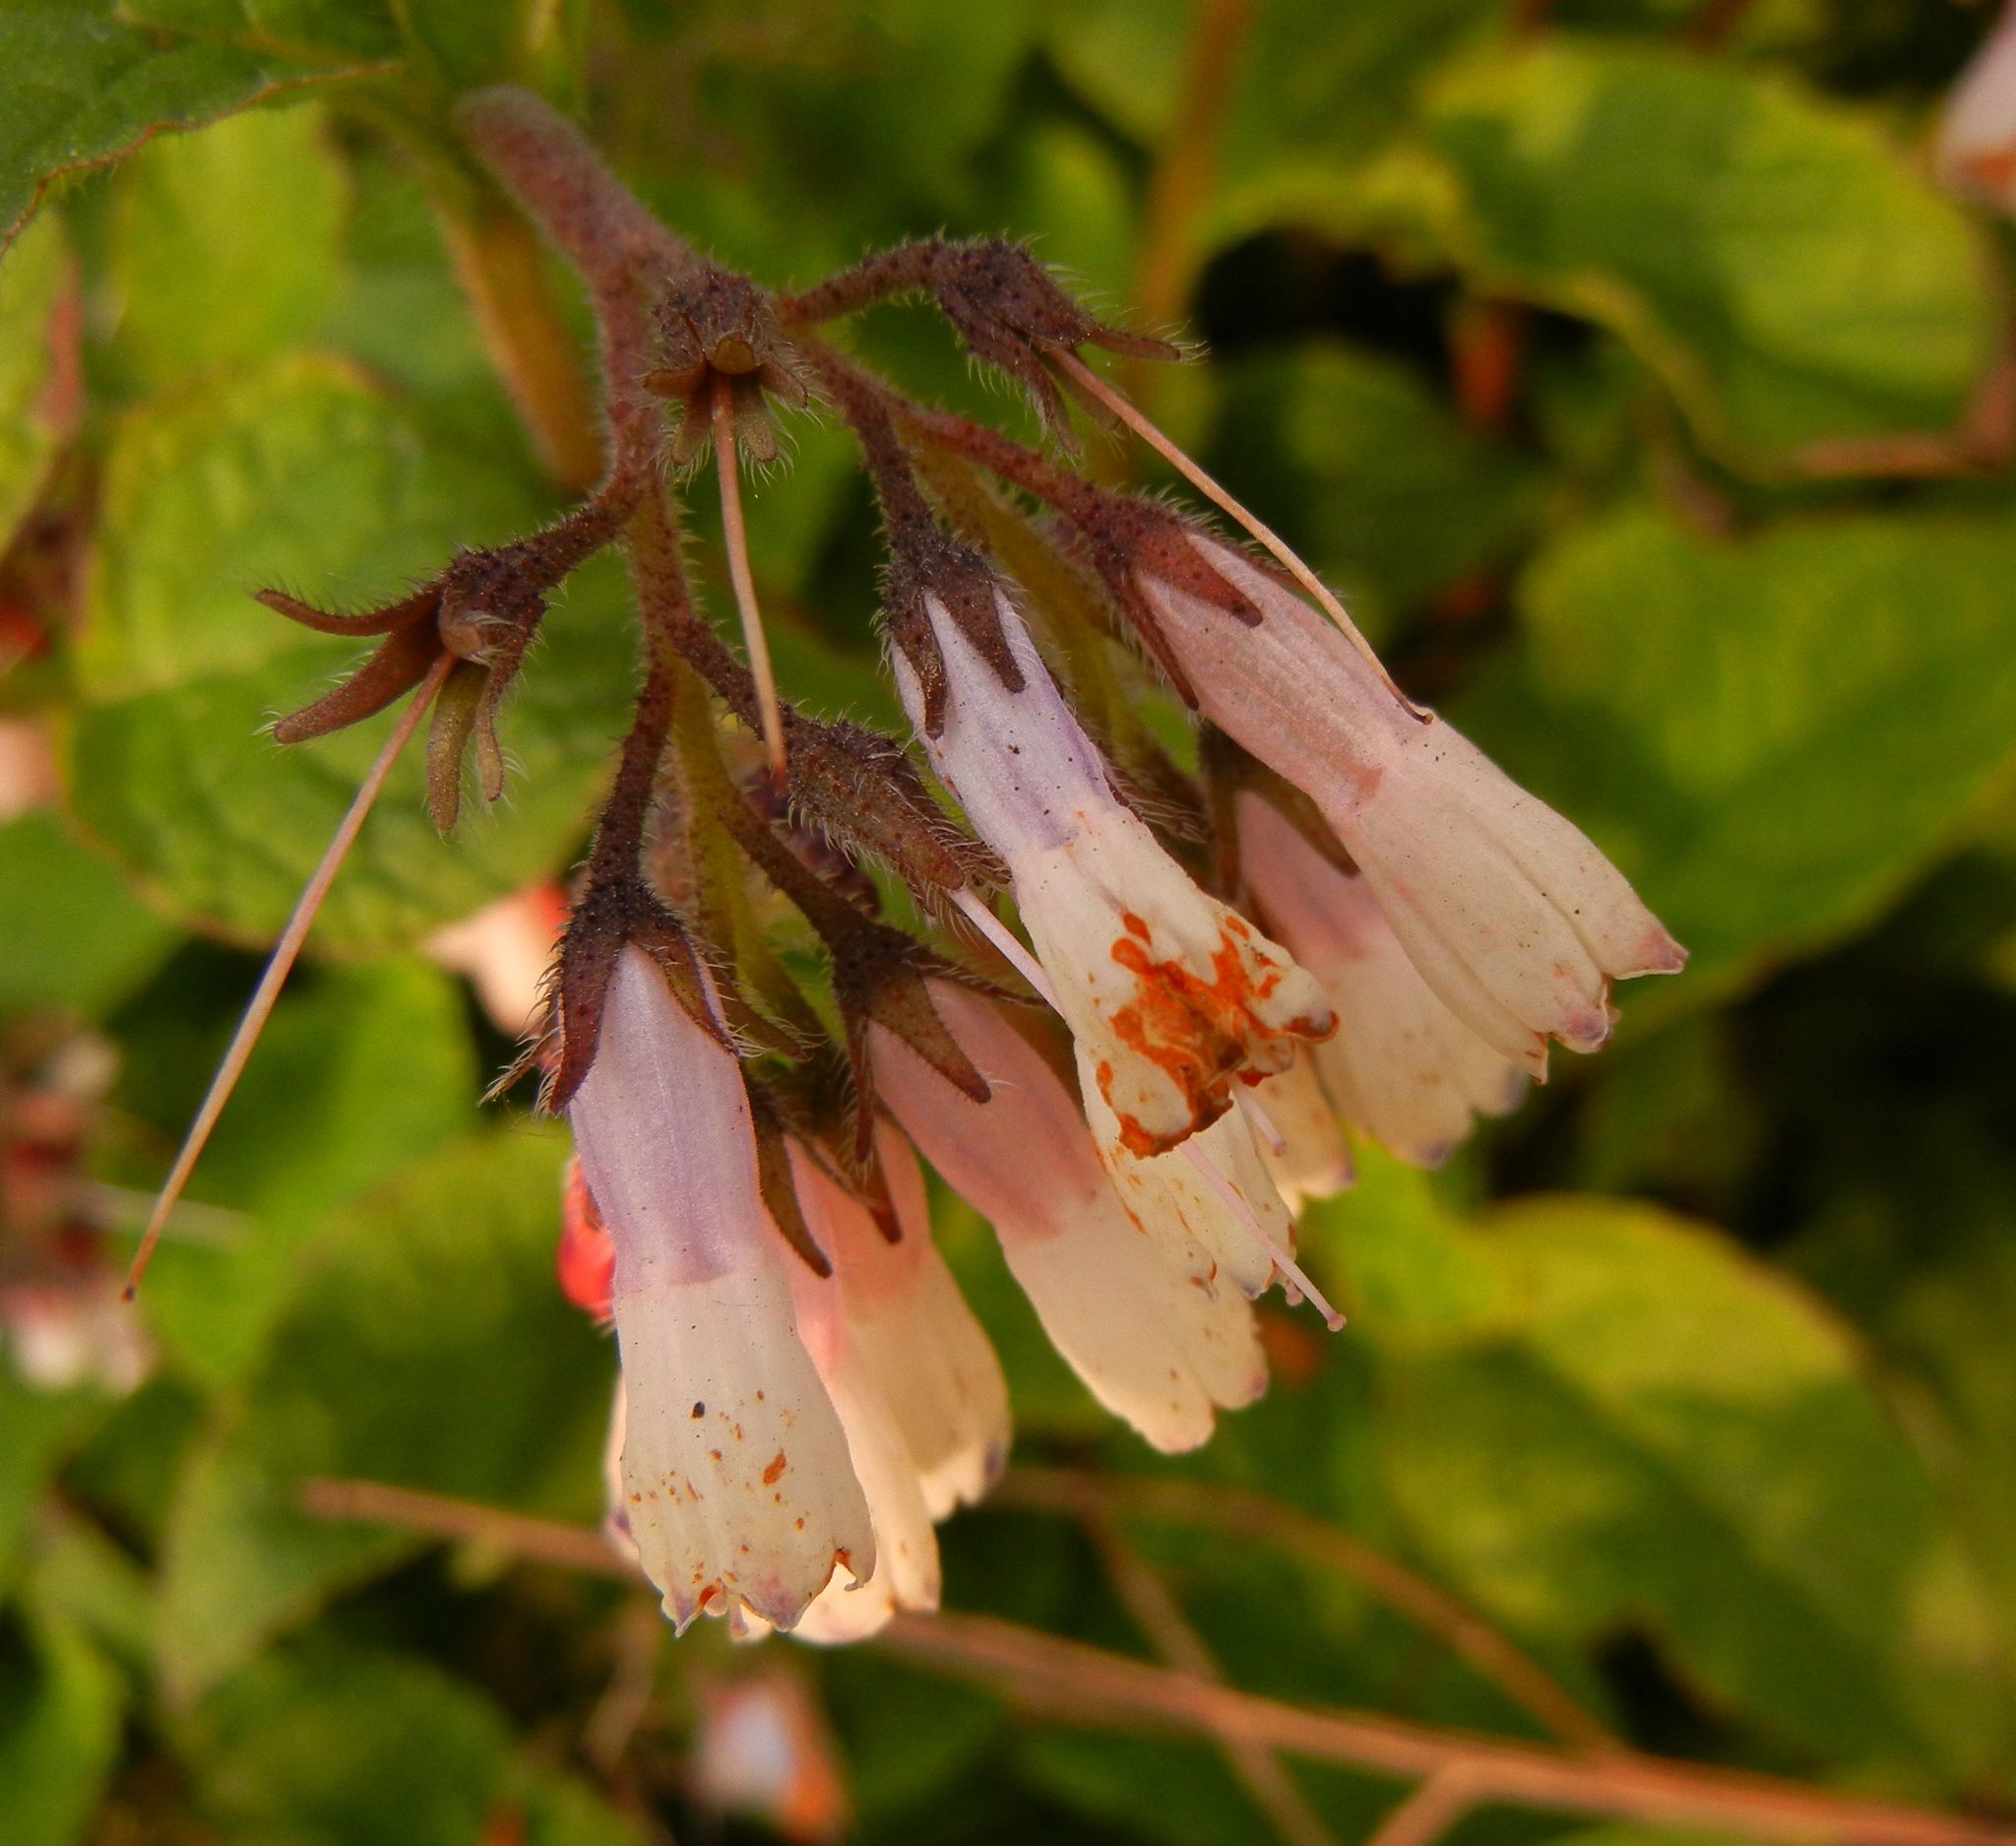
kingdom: Plantae
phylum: Tracheophyta
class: Magnoliopsida
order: Boraginales
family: Boraginaceae
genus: Symphytum
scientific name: Symphytum hidcotense
